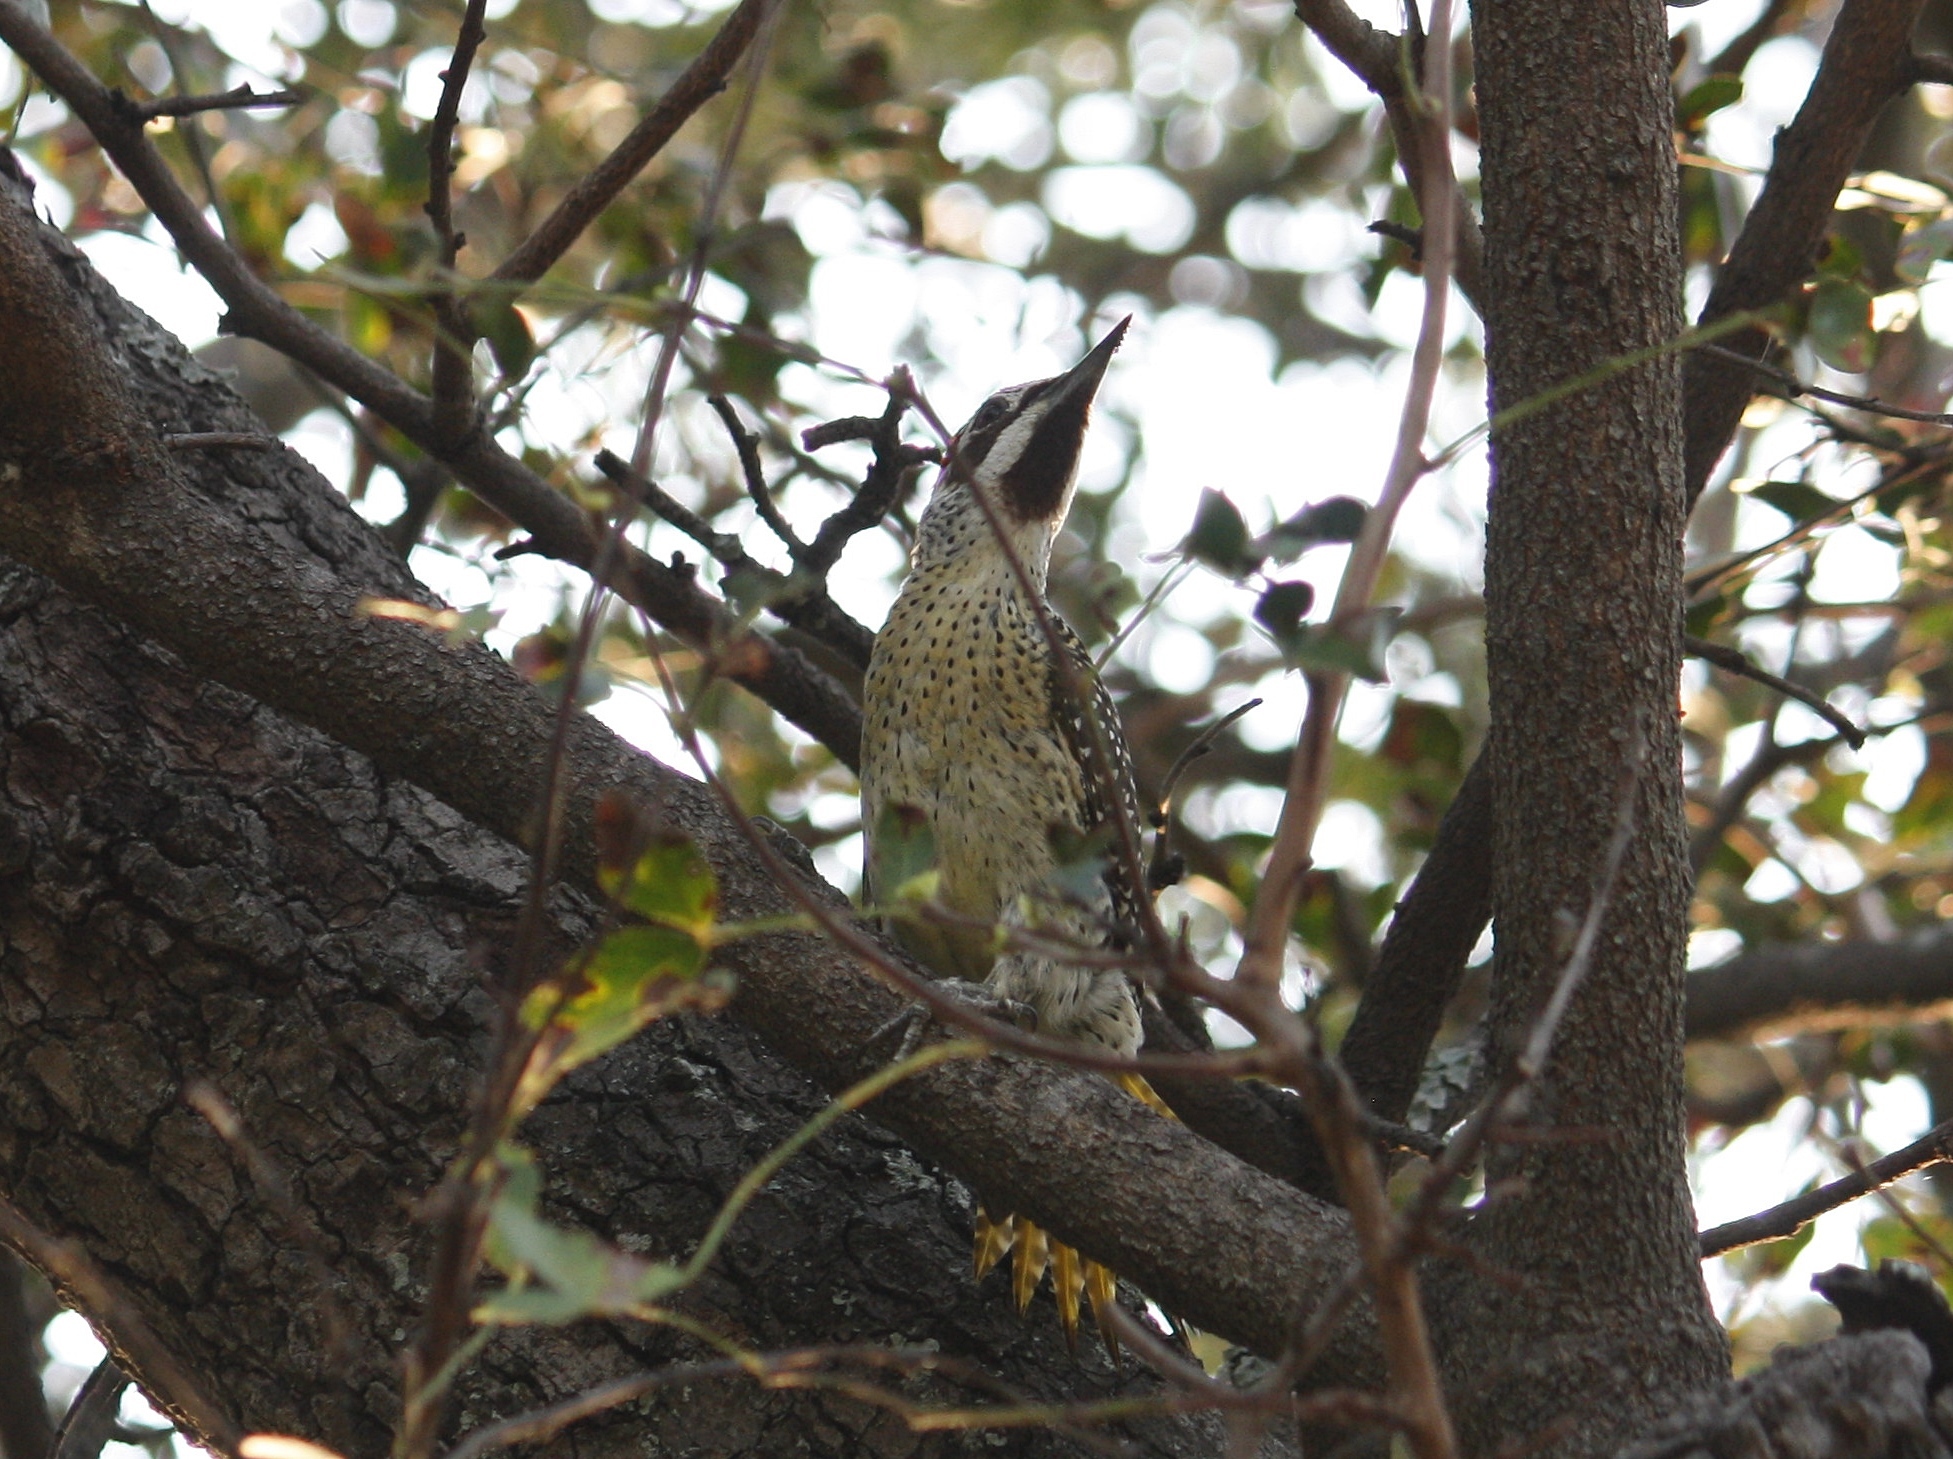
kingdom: Animalia
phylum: Chordata
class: Aves
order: Piciformes
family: Picidae
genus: Campethera
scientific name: Campethera bennettii
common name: Bennett's woodpecker
